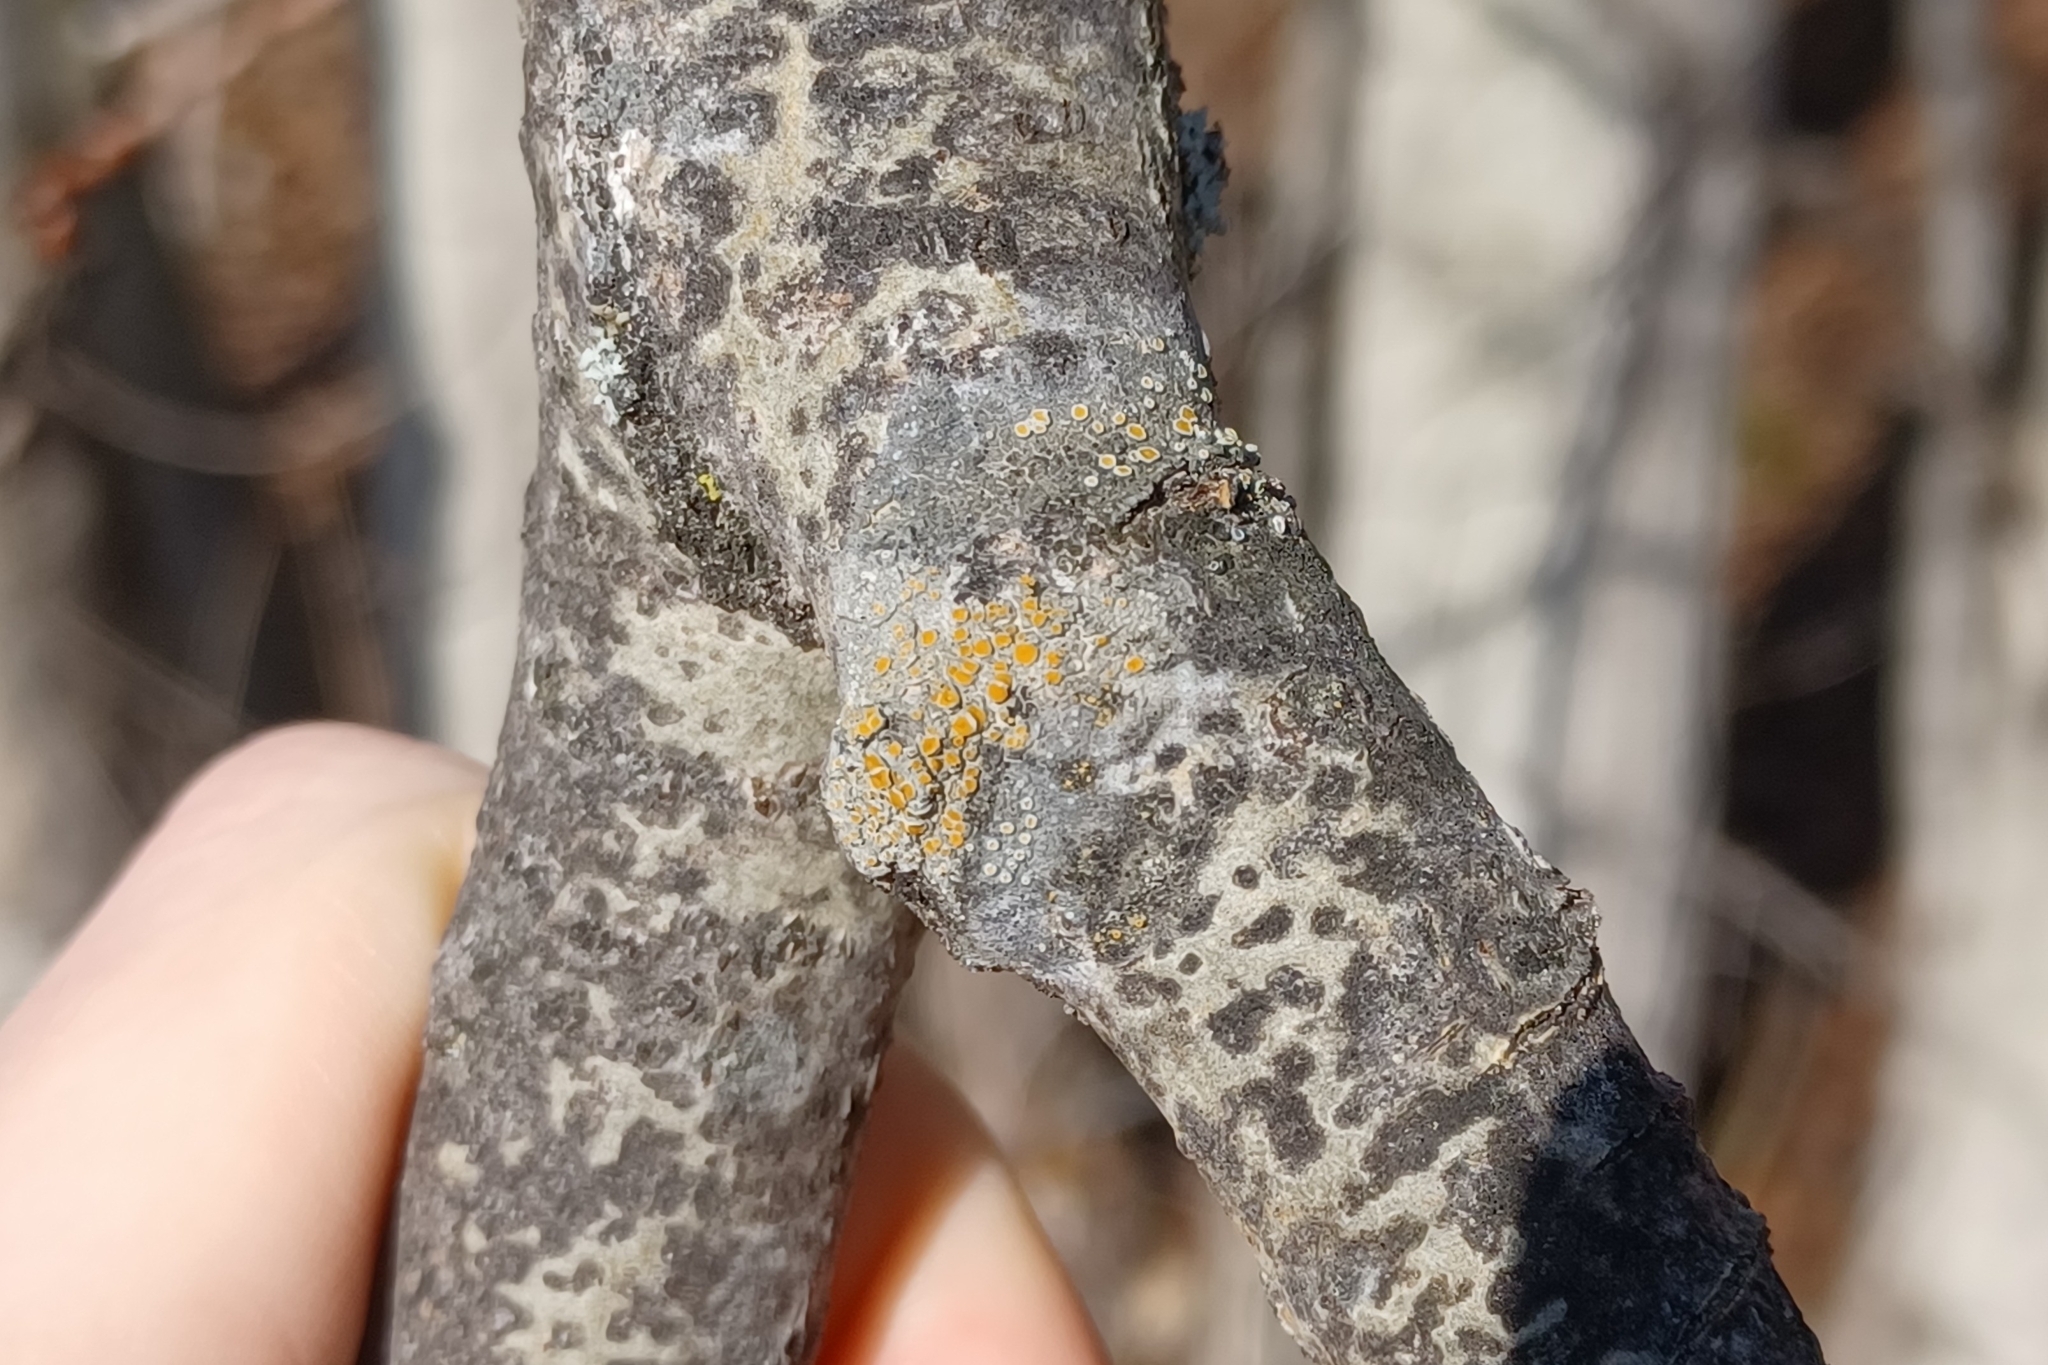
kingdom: Fungi
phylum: Ascomycota
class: Lecanoromycetes
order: Teloschistales
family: Teloschistaceae
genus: Caloplaca
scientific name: Caloplaca cerina
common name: Gray-rimmed firedot lichen
